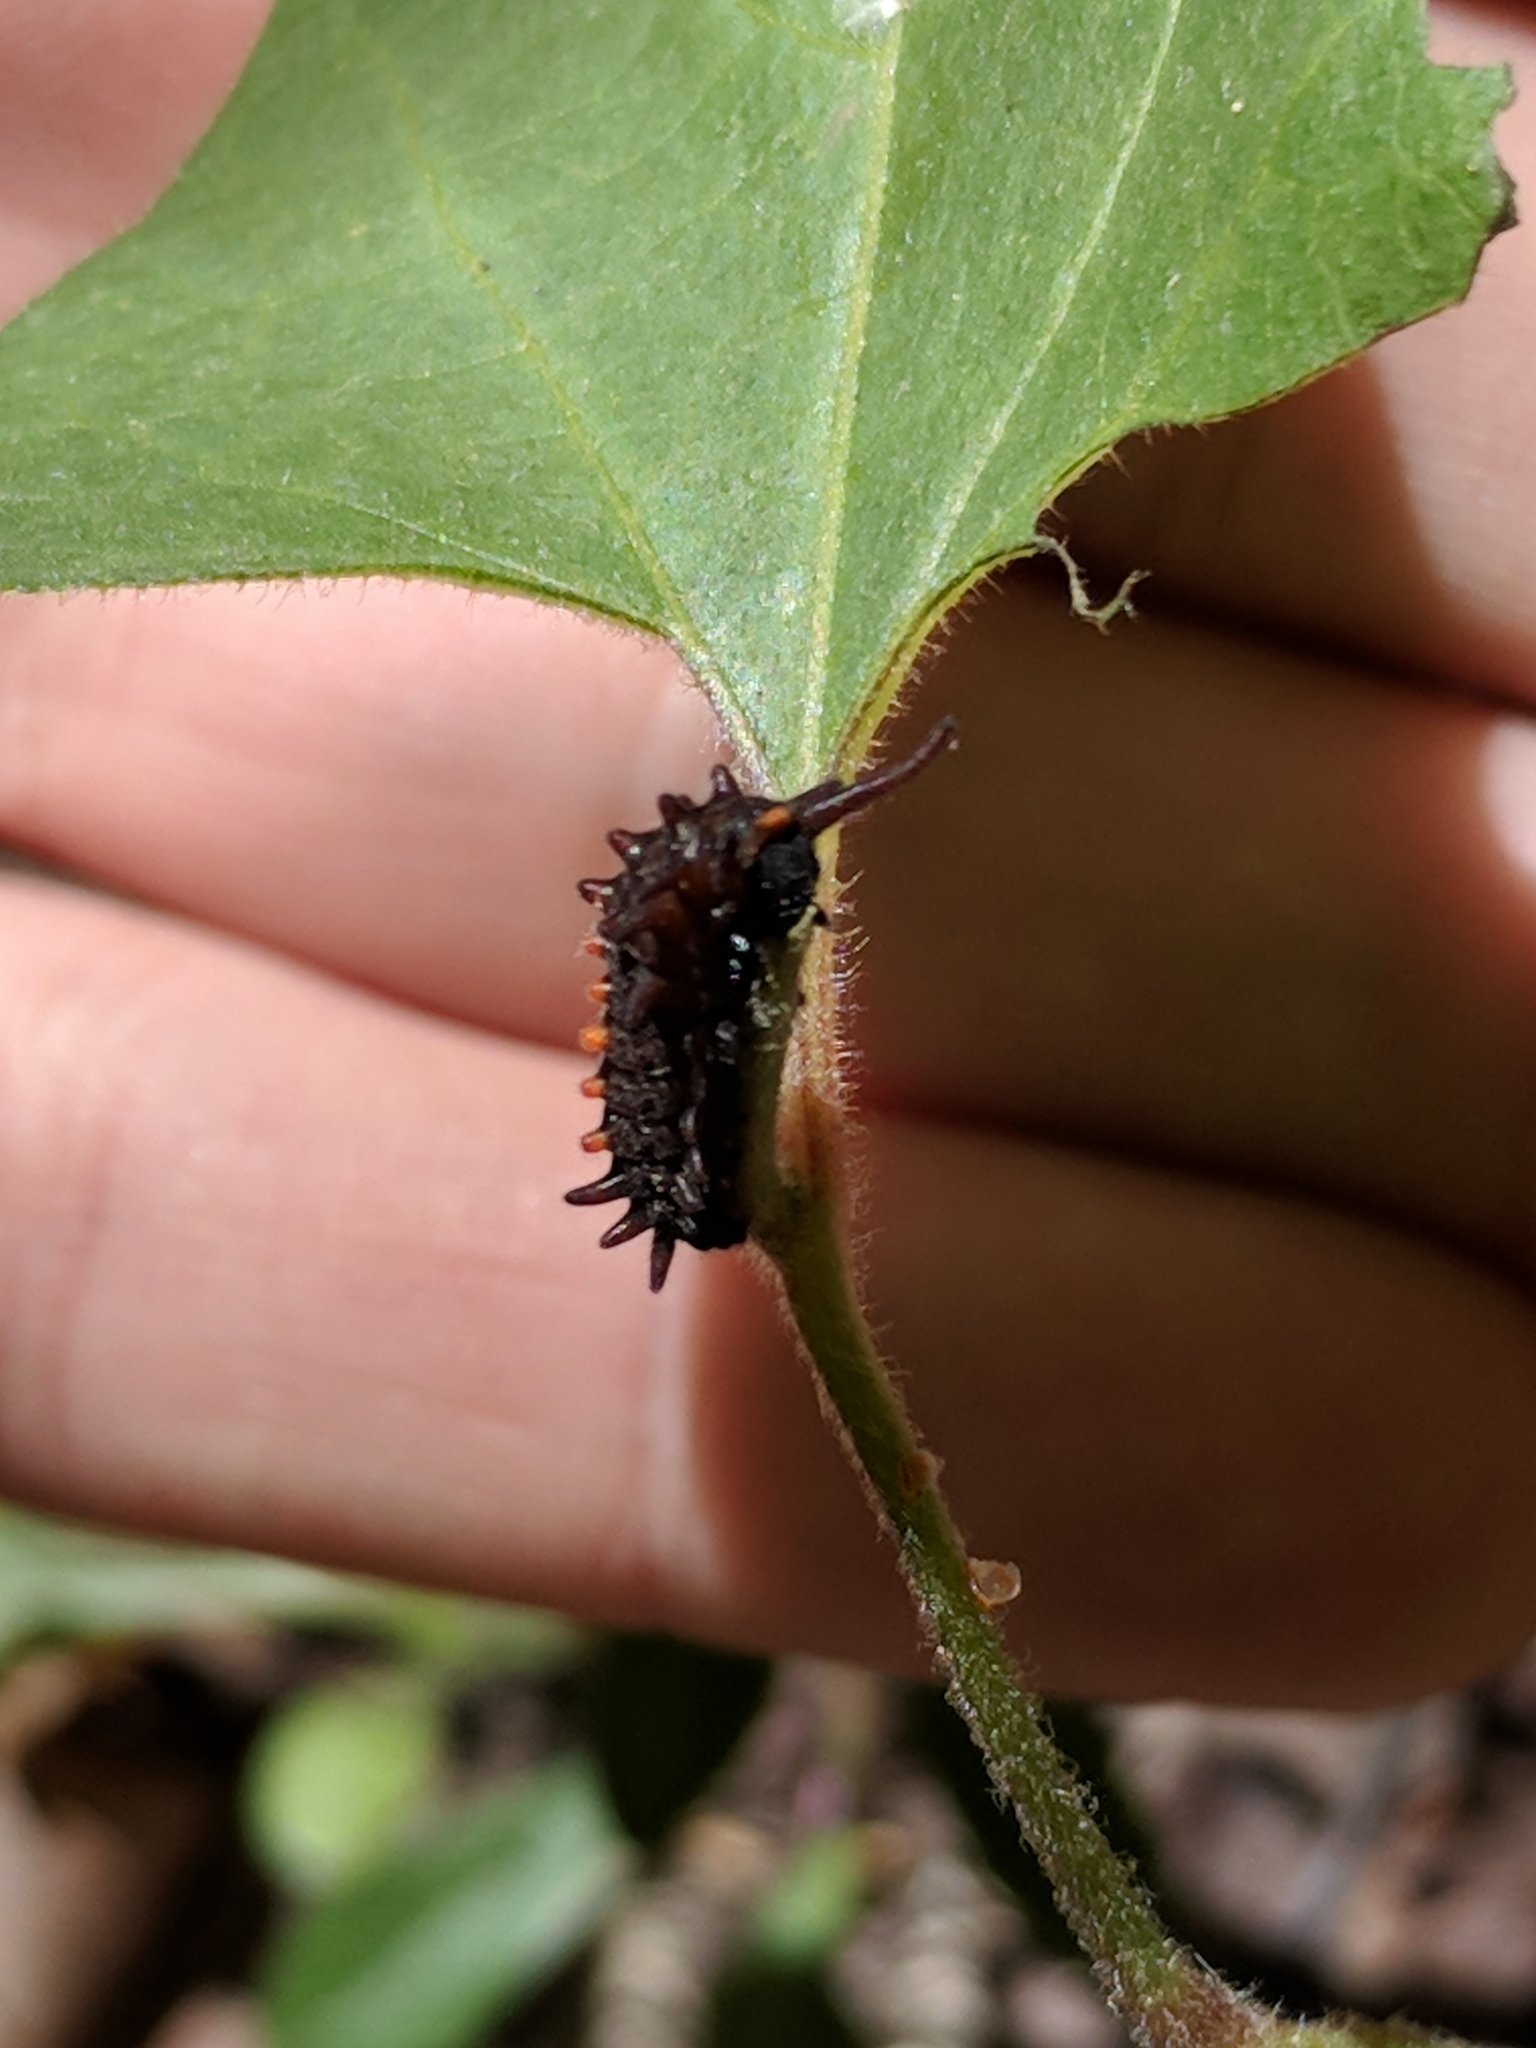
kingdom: Plantae
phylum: Tracheophyta
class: Magnoliopsida
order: Piperales
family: Aristolochiaceae
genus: Endodeca
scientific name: Endodeca serpentaria
